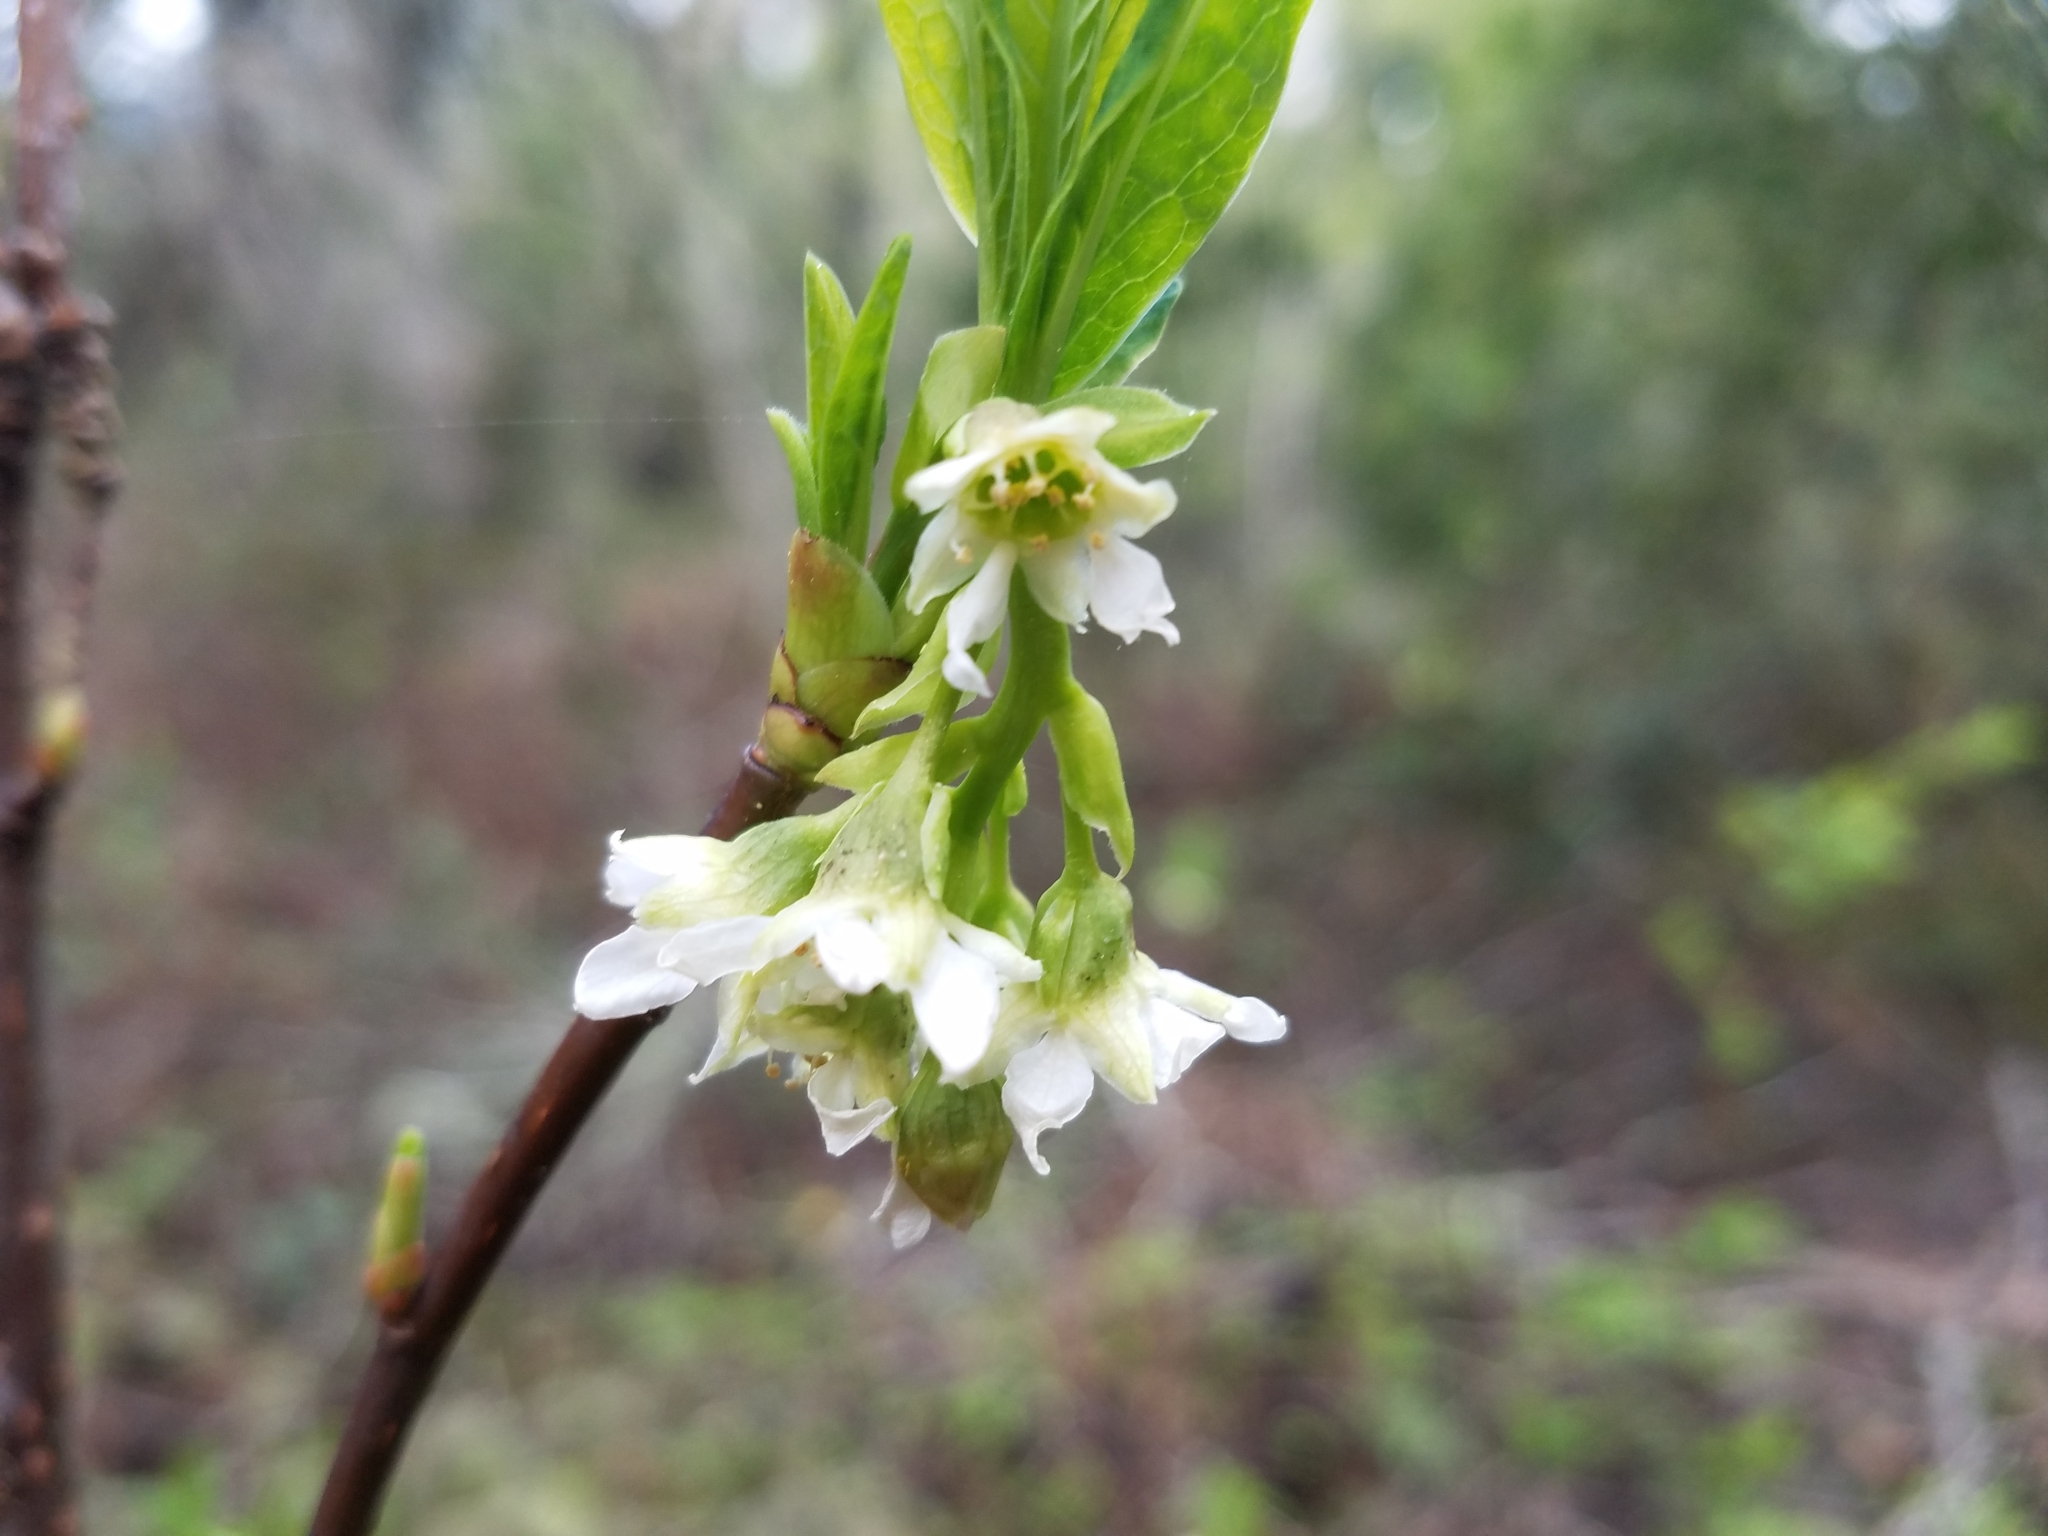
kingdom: Plantae
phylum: Tracheophyta
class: Magnoliopsida
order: Rosales
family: Rosaceae
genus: Oemleria
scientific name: Oemleria cerasiformis
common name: Osoberry
